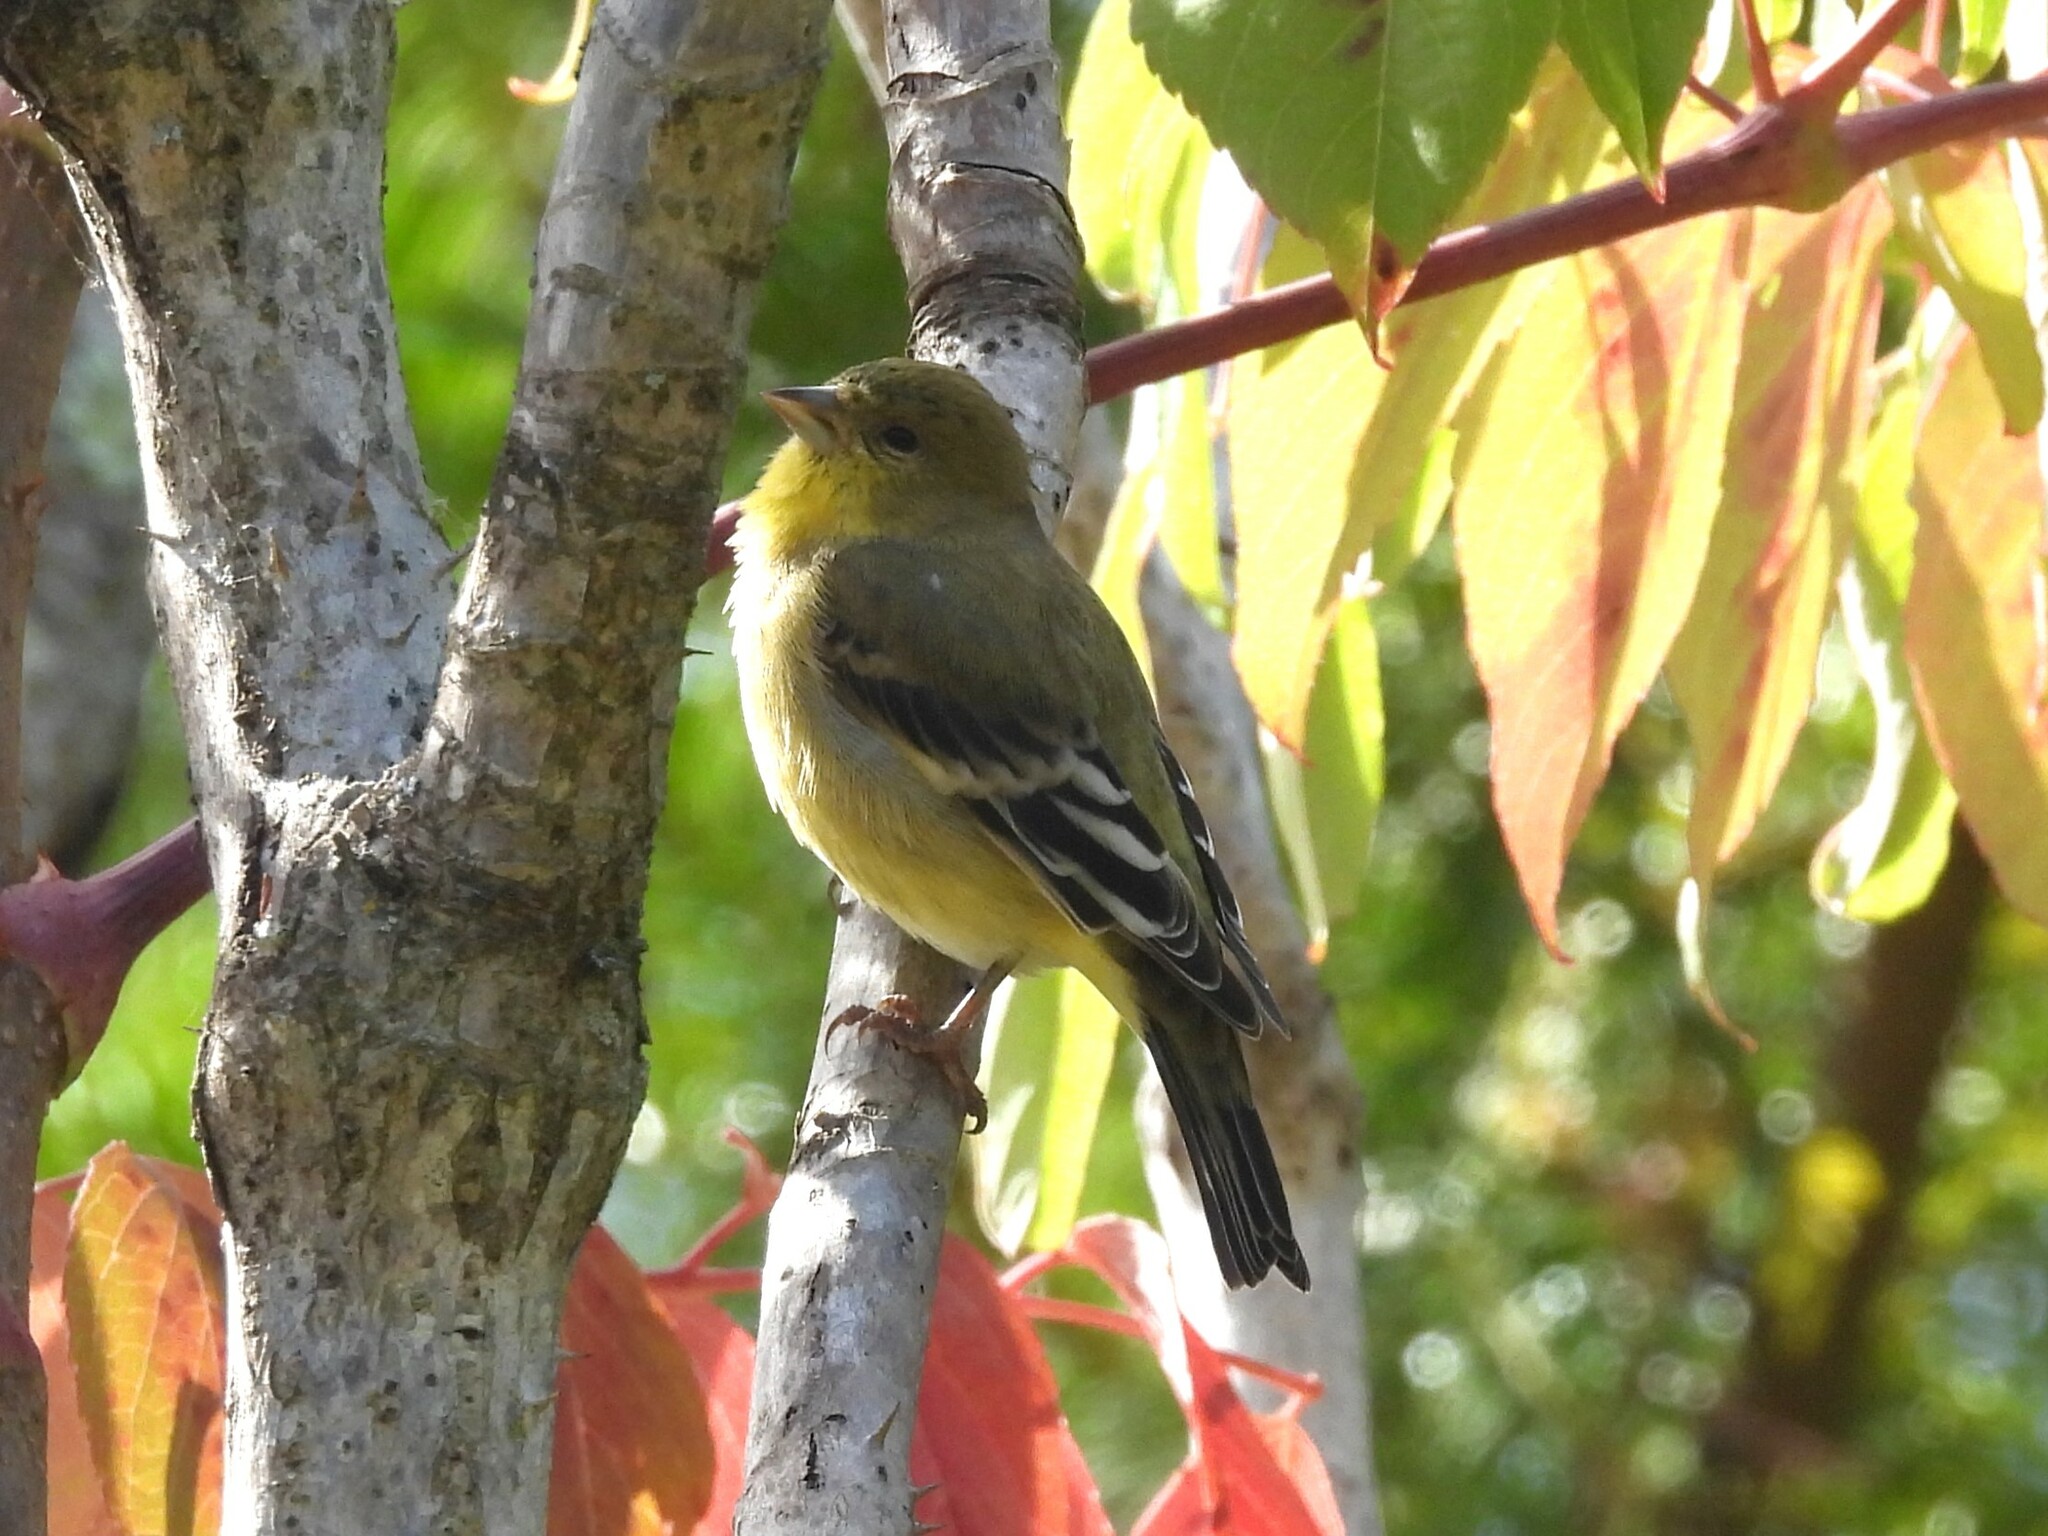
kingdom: Animalia
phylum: Chordata
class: Aves
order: Passeriformes
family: Fringillidae
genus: Spinus
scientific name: Spinus psaltria
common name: Lesser goldfinch
